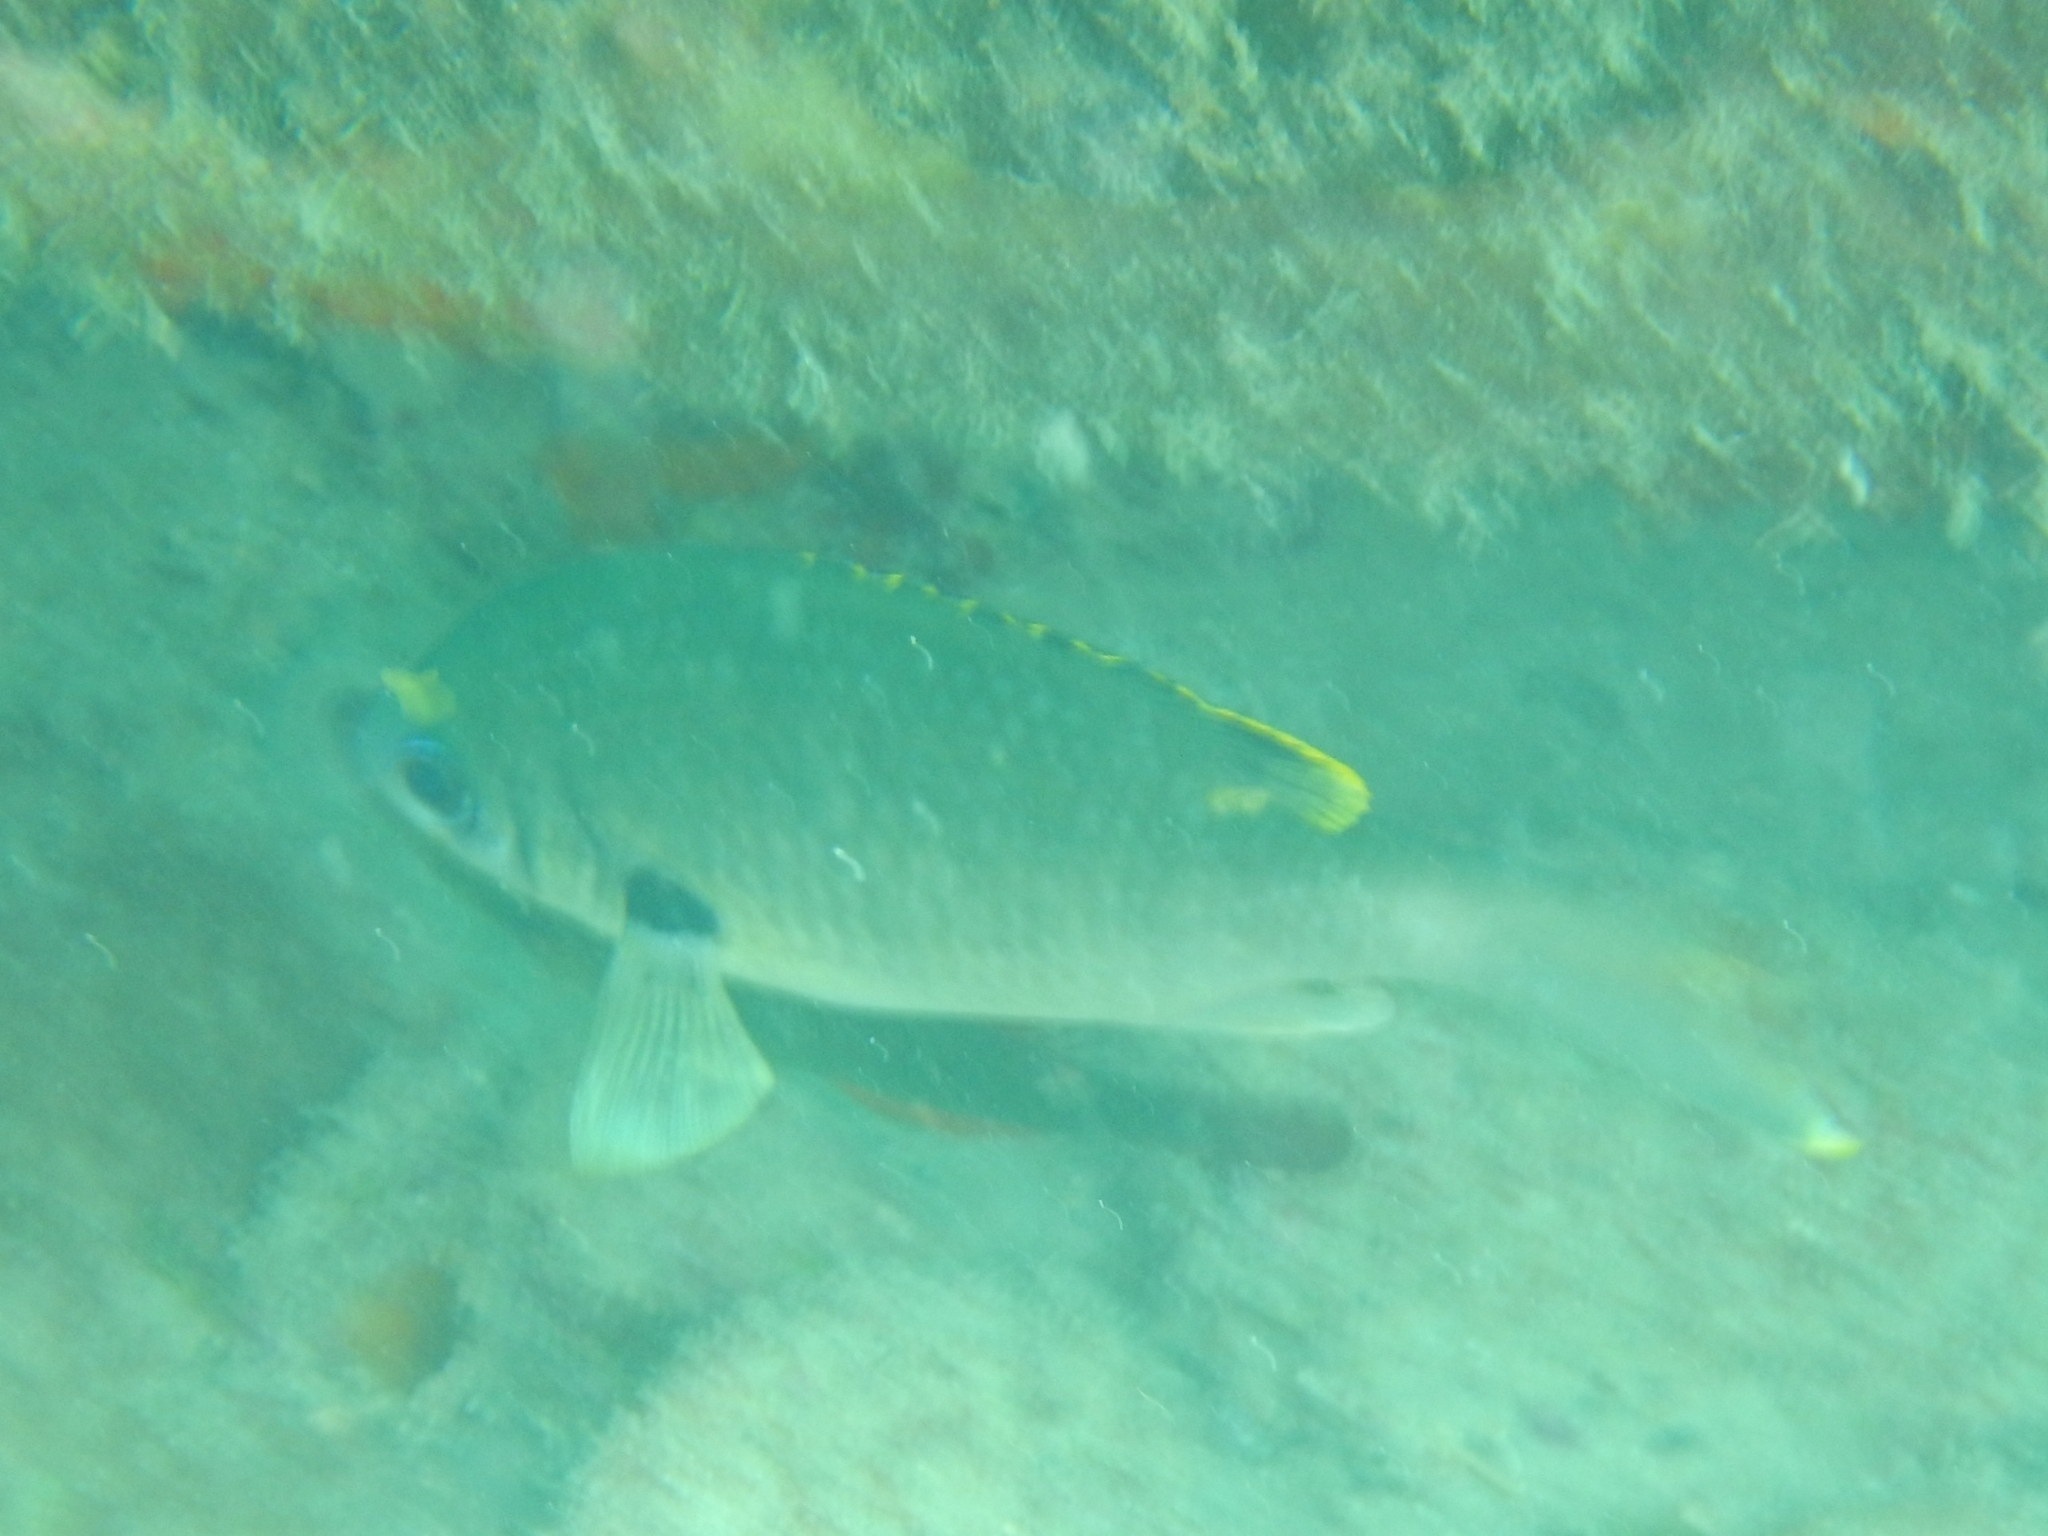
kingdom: Animalia
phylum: Chordata
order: Perciformes
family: Pomacentridae
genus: Chromis
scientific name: Chromis multilineata
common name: Brown chromis
